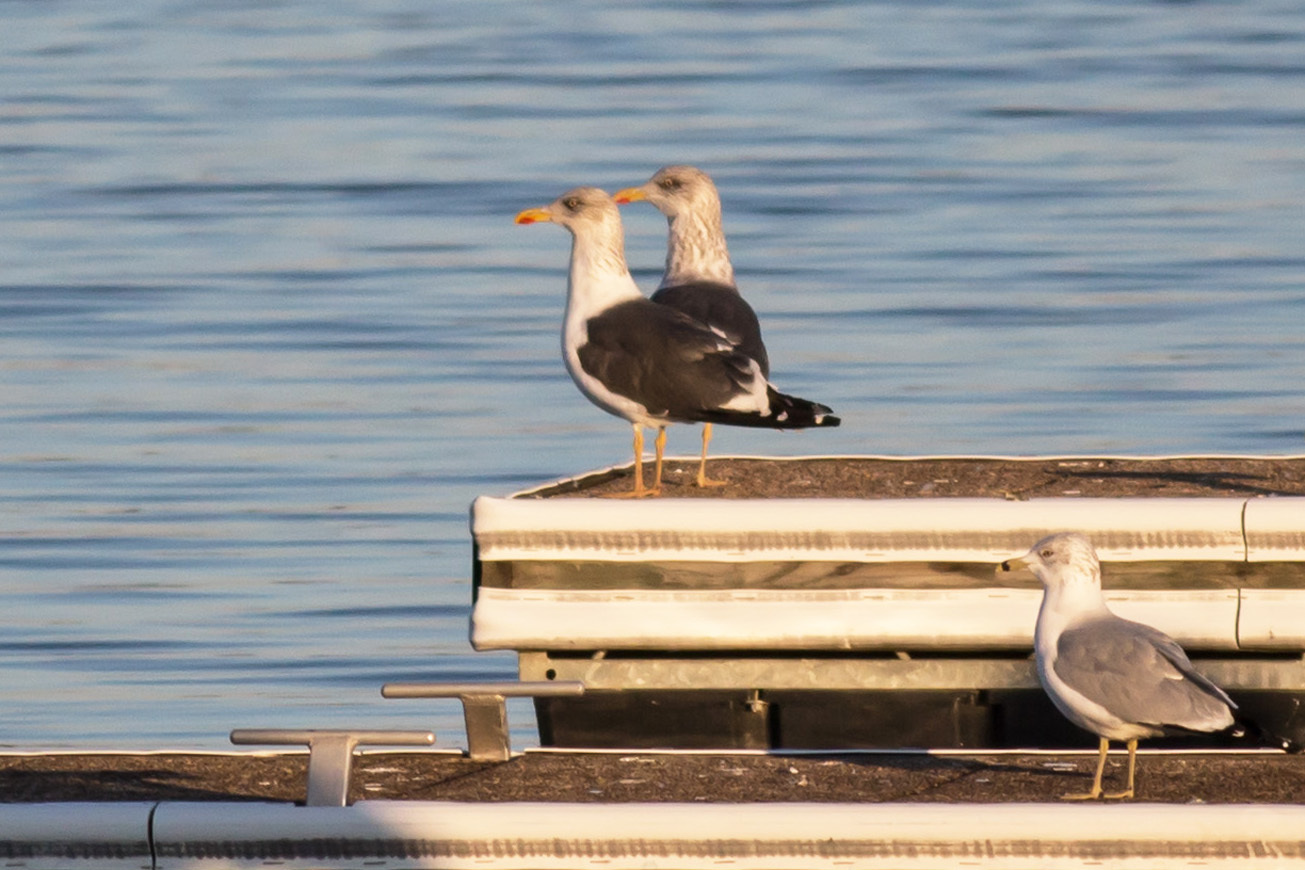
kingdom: Animalia
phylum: Chordata
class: Aves
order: Charadriiformes
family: Laridae
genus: Larus
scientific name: Larus fuscus
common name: Lesser black-backed gull
